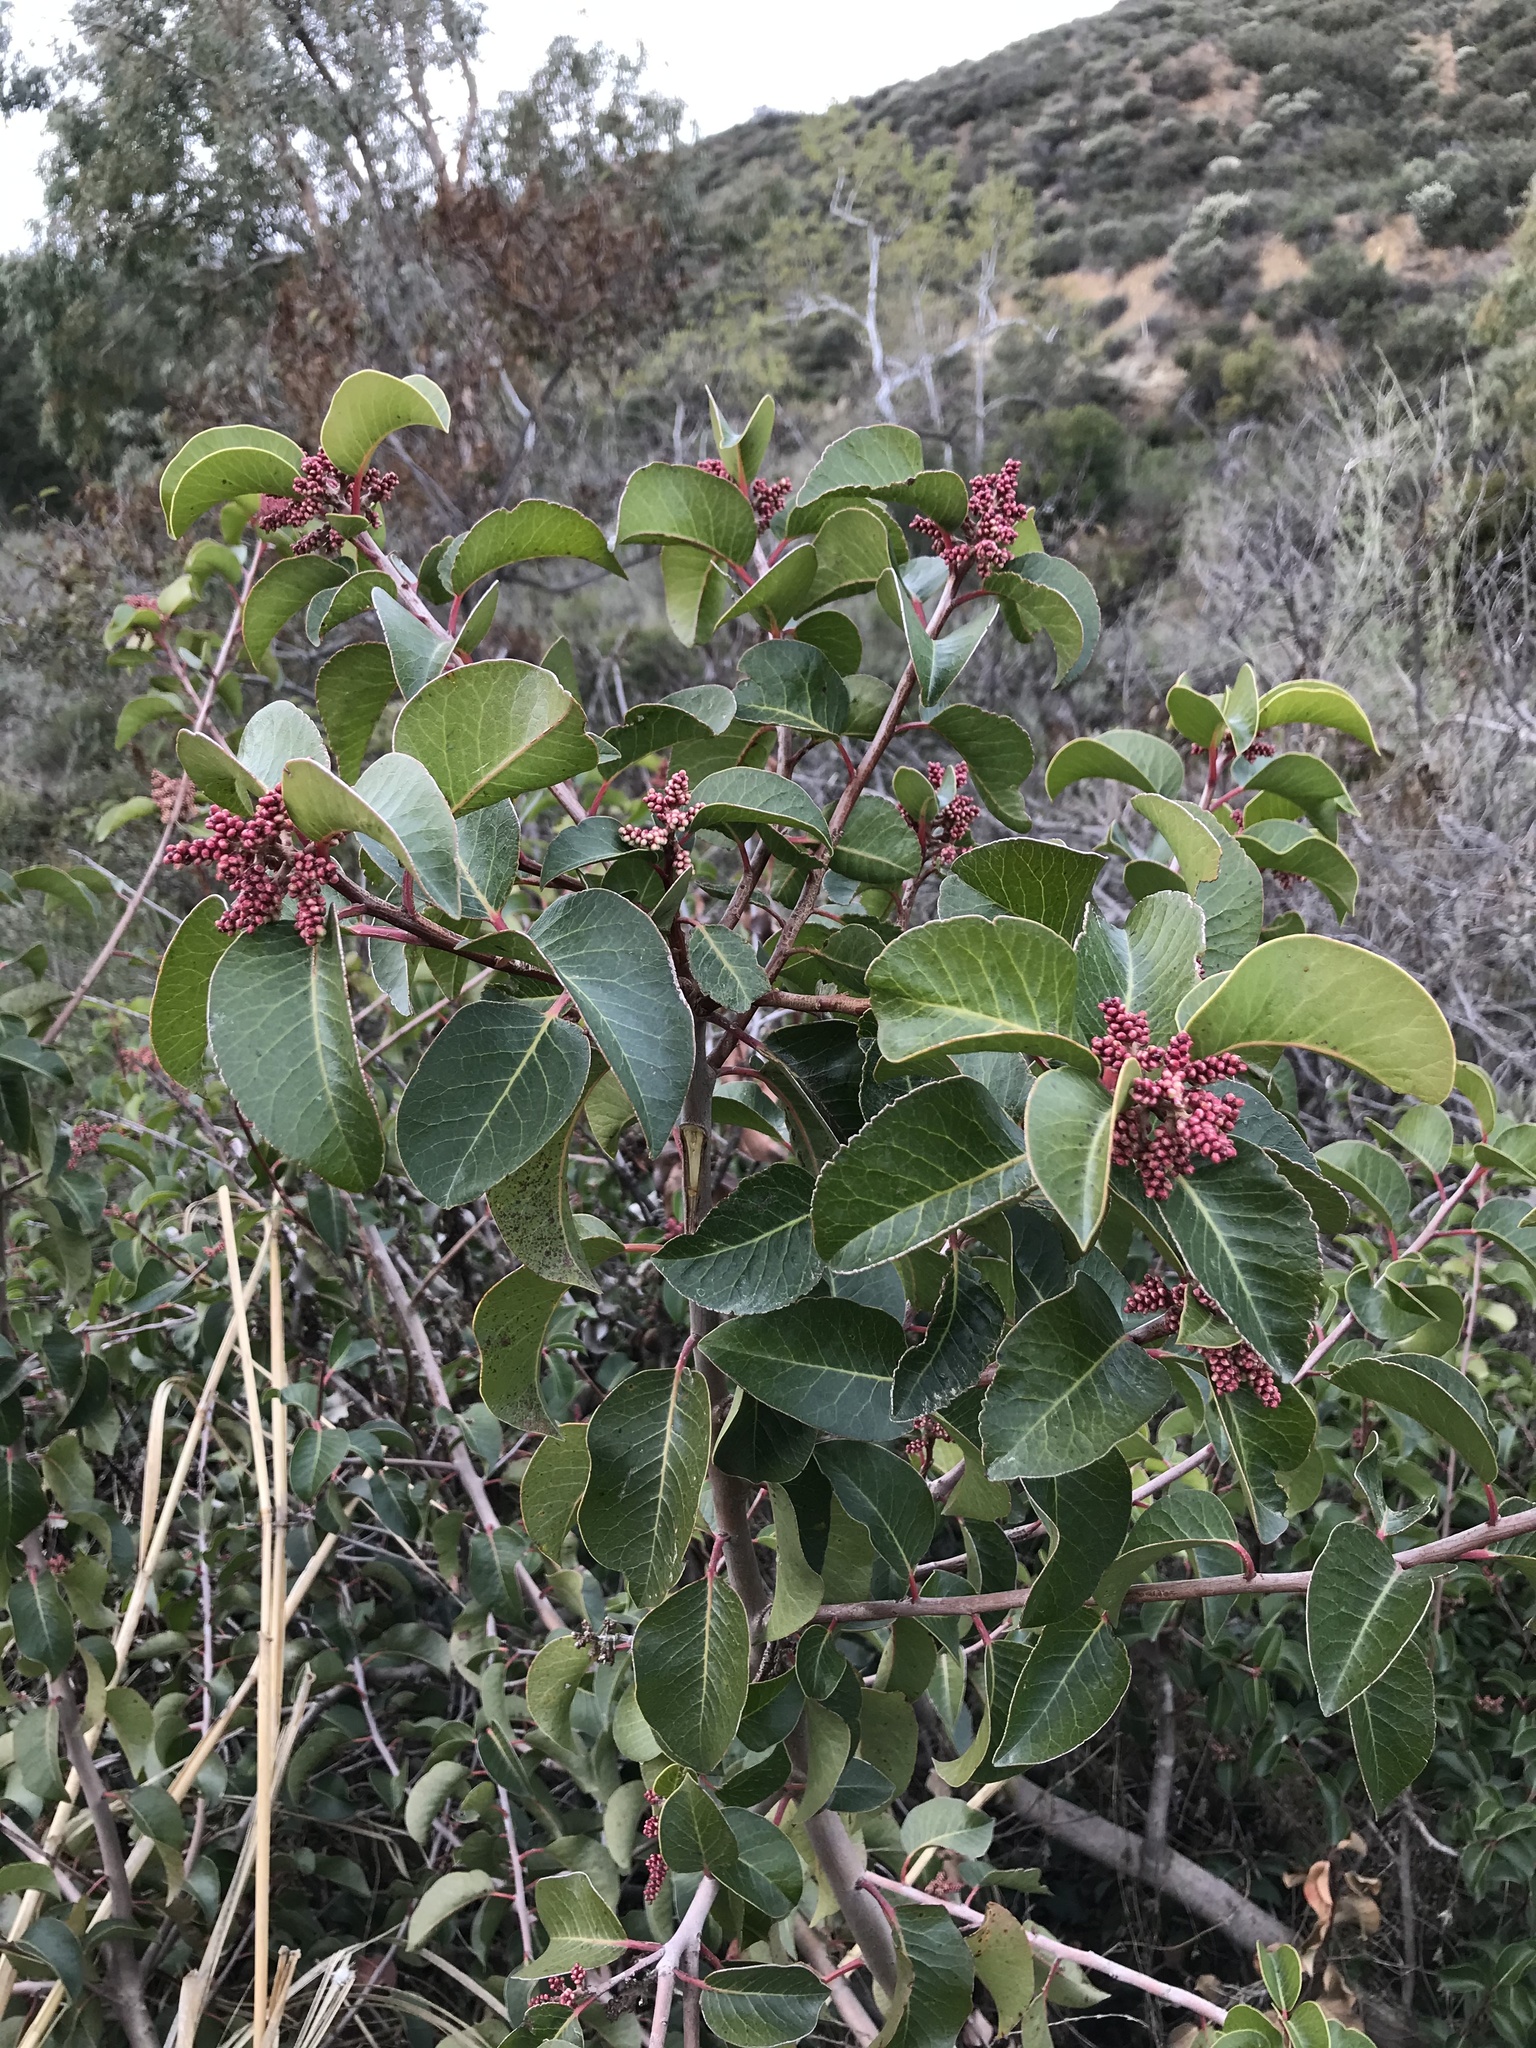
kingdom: Plantae
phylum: Tracheophyta
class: Magnoliopsida
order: Sapindales
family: Anacardiaceae
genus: Rhus
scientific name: Rhus ovata
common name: Sugar sumac
